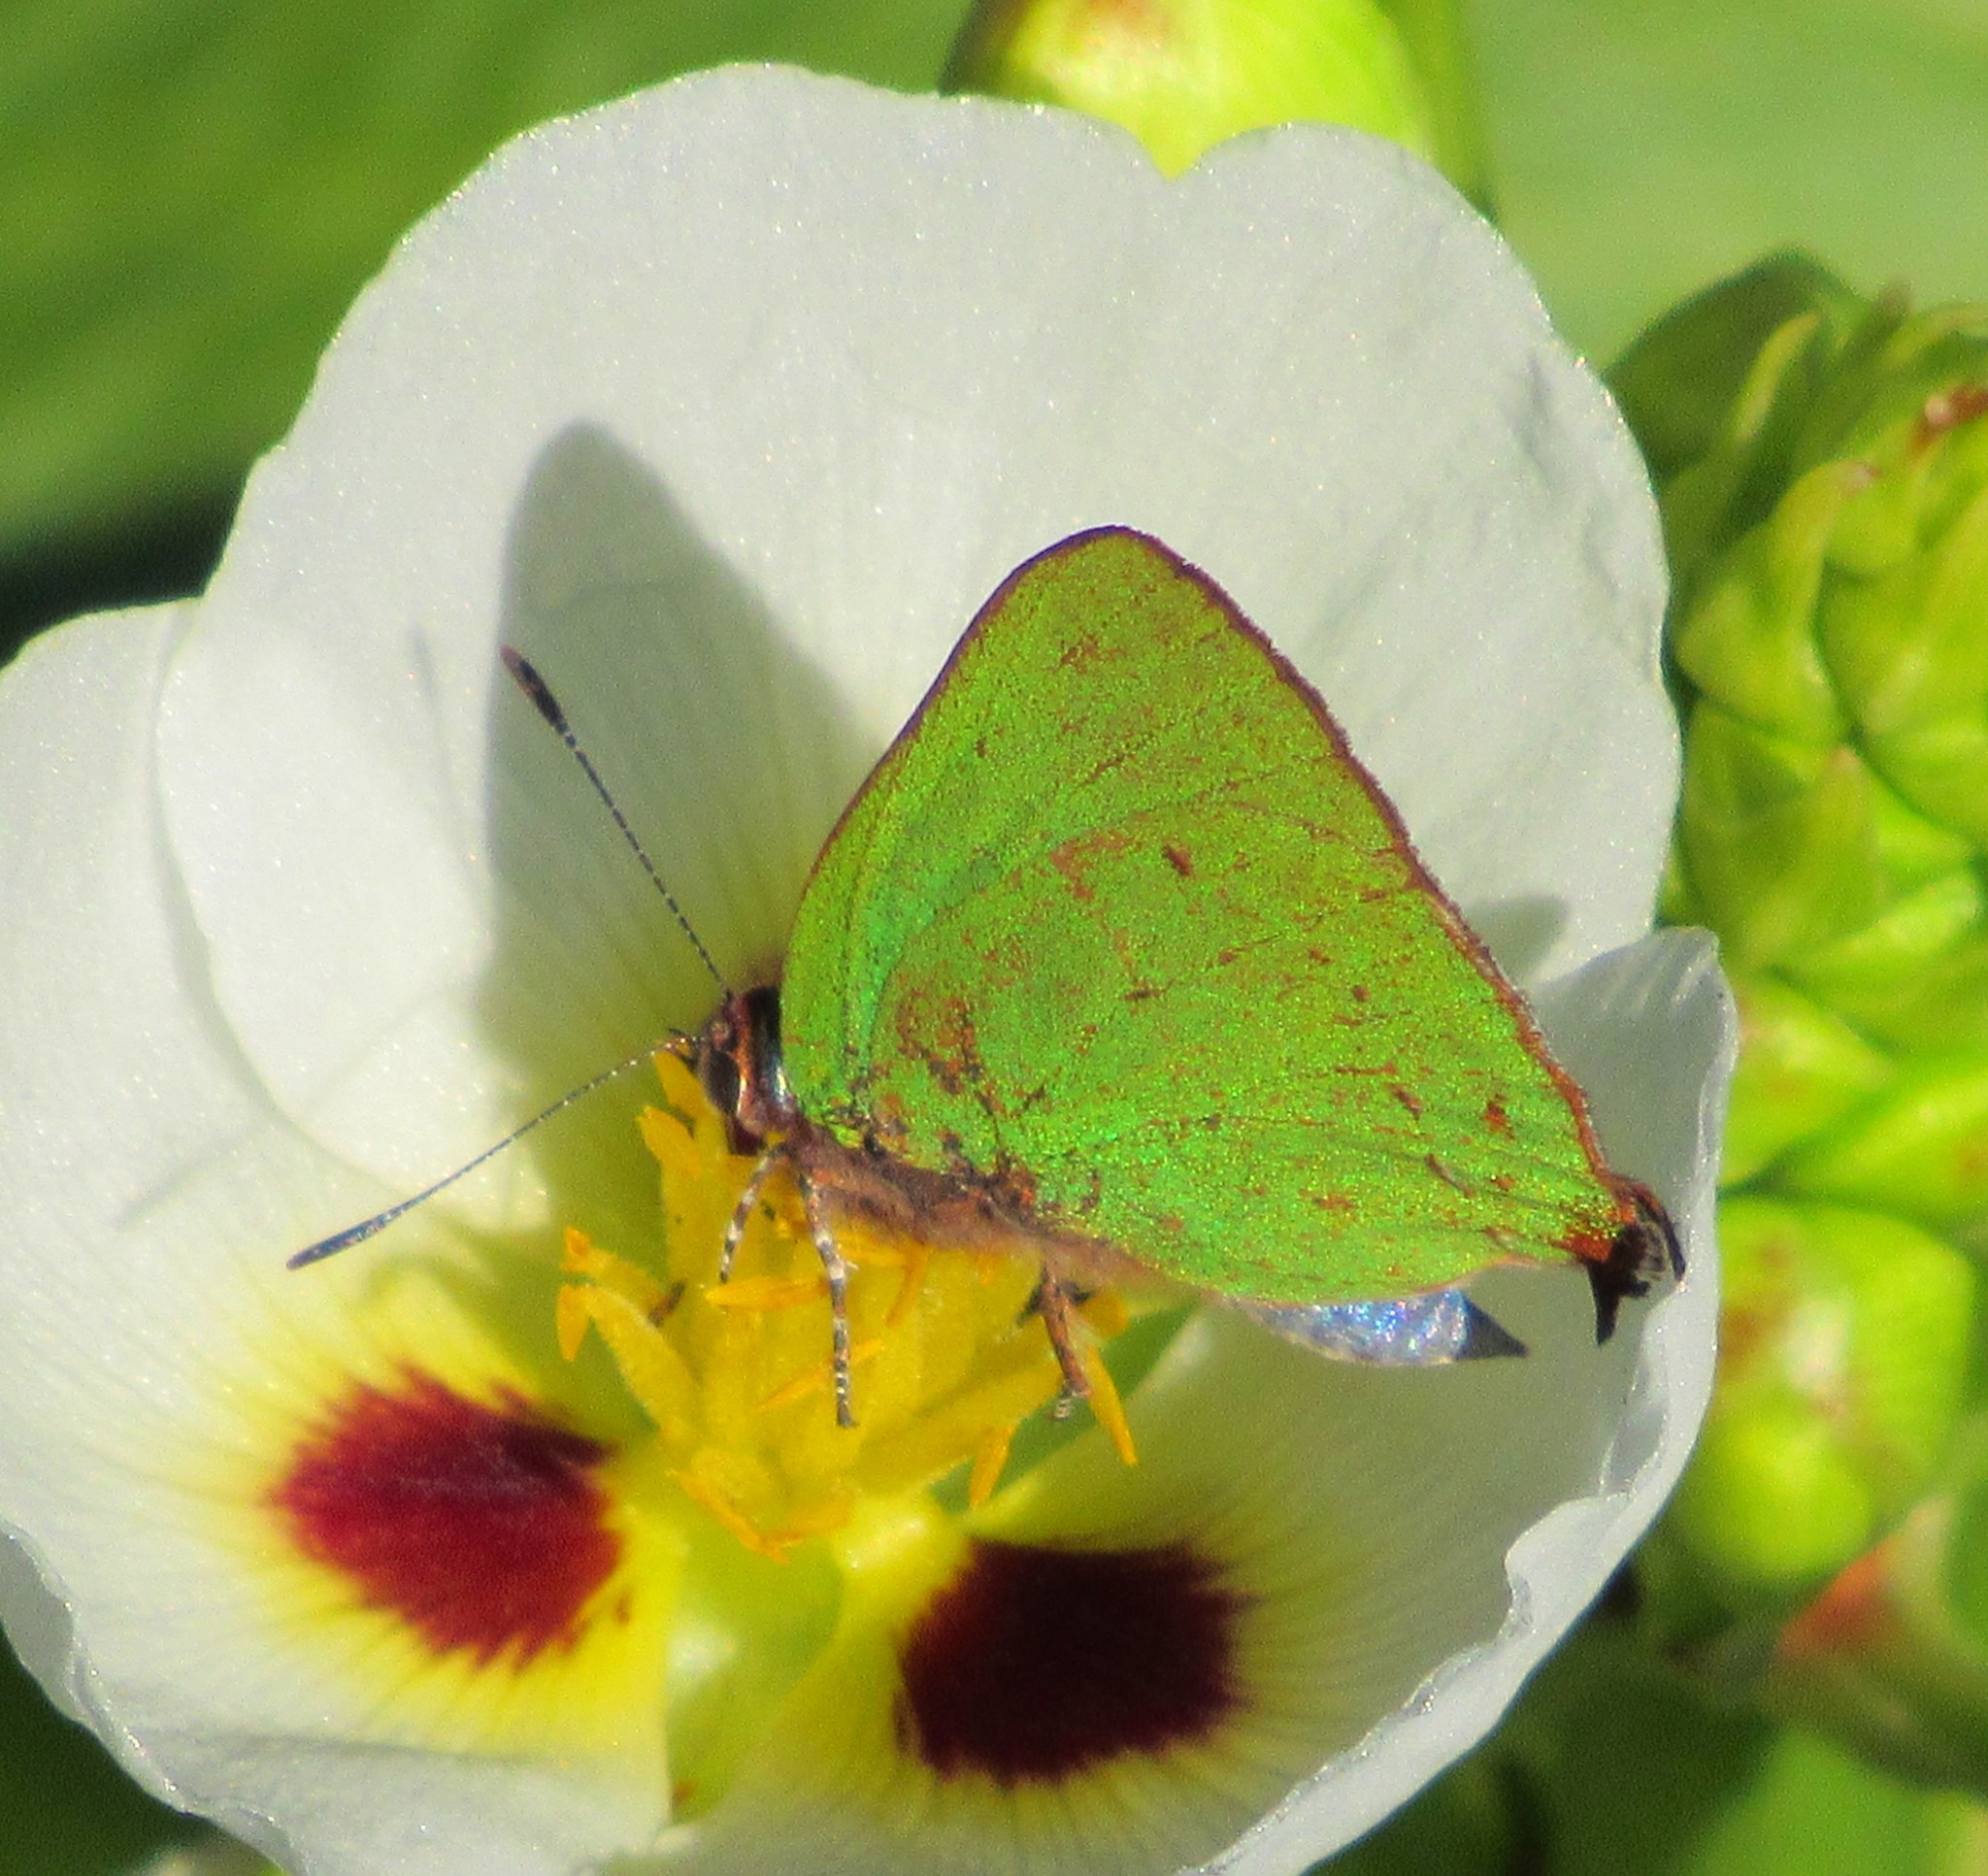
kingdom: Animalia
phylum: Arthropoda
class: Insecta
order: Lepidoptera
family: Lycaenidae
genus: Cyanophrys
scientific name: Cyanophrys
